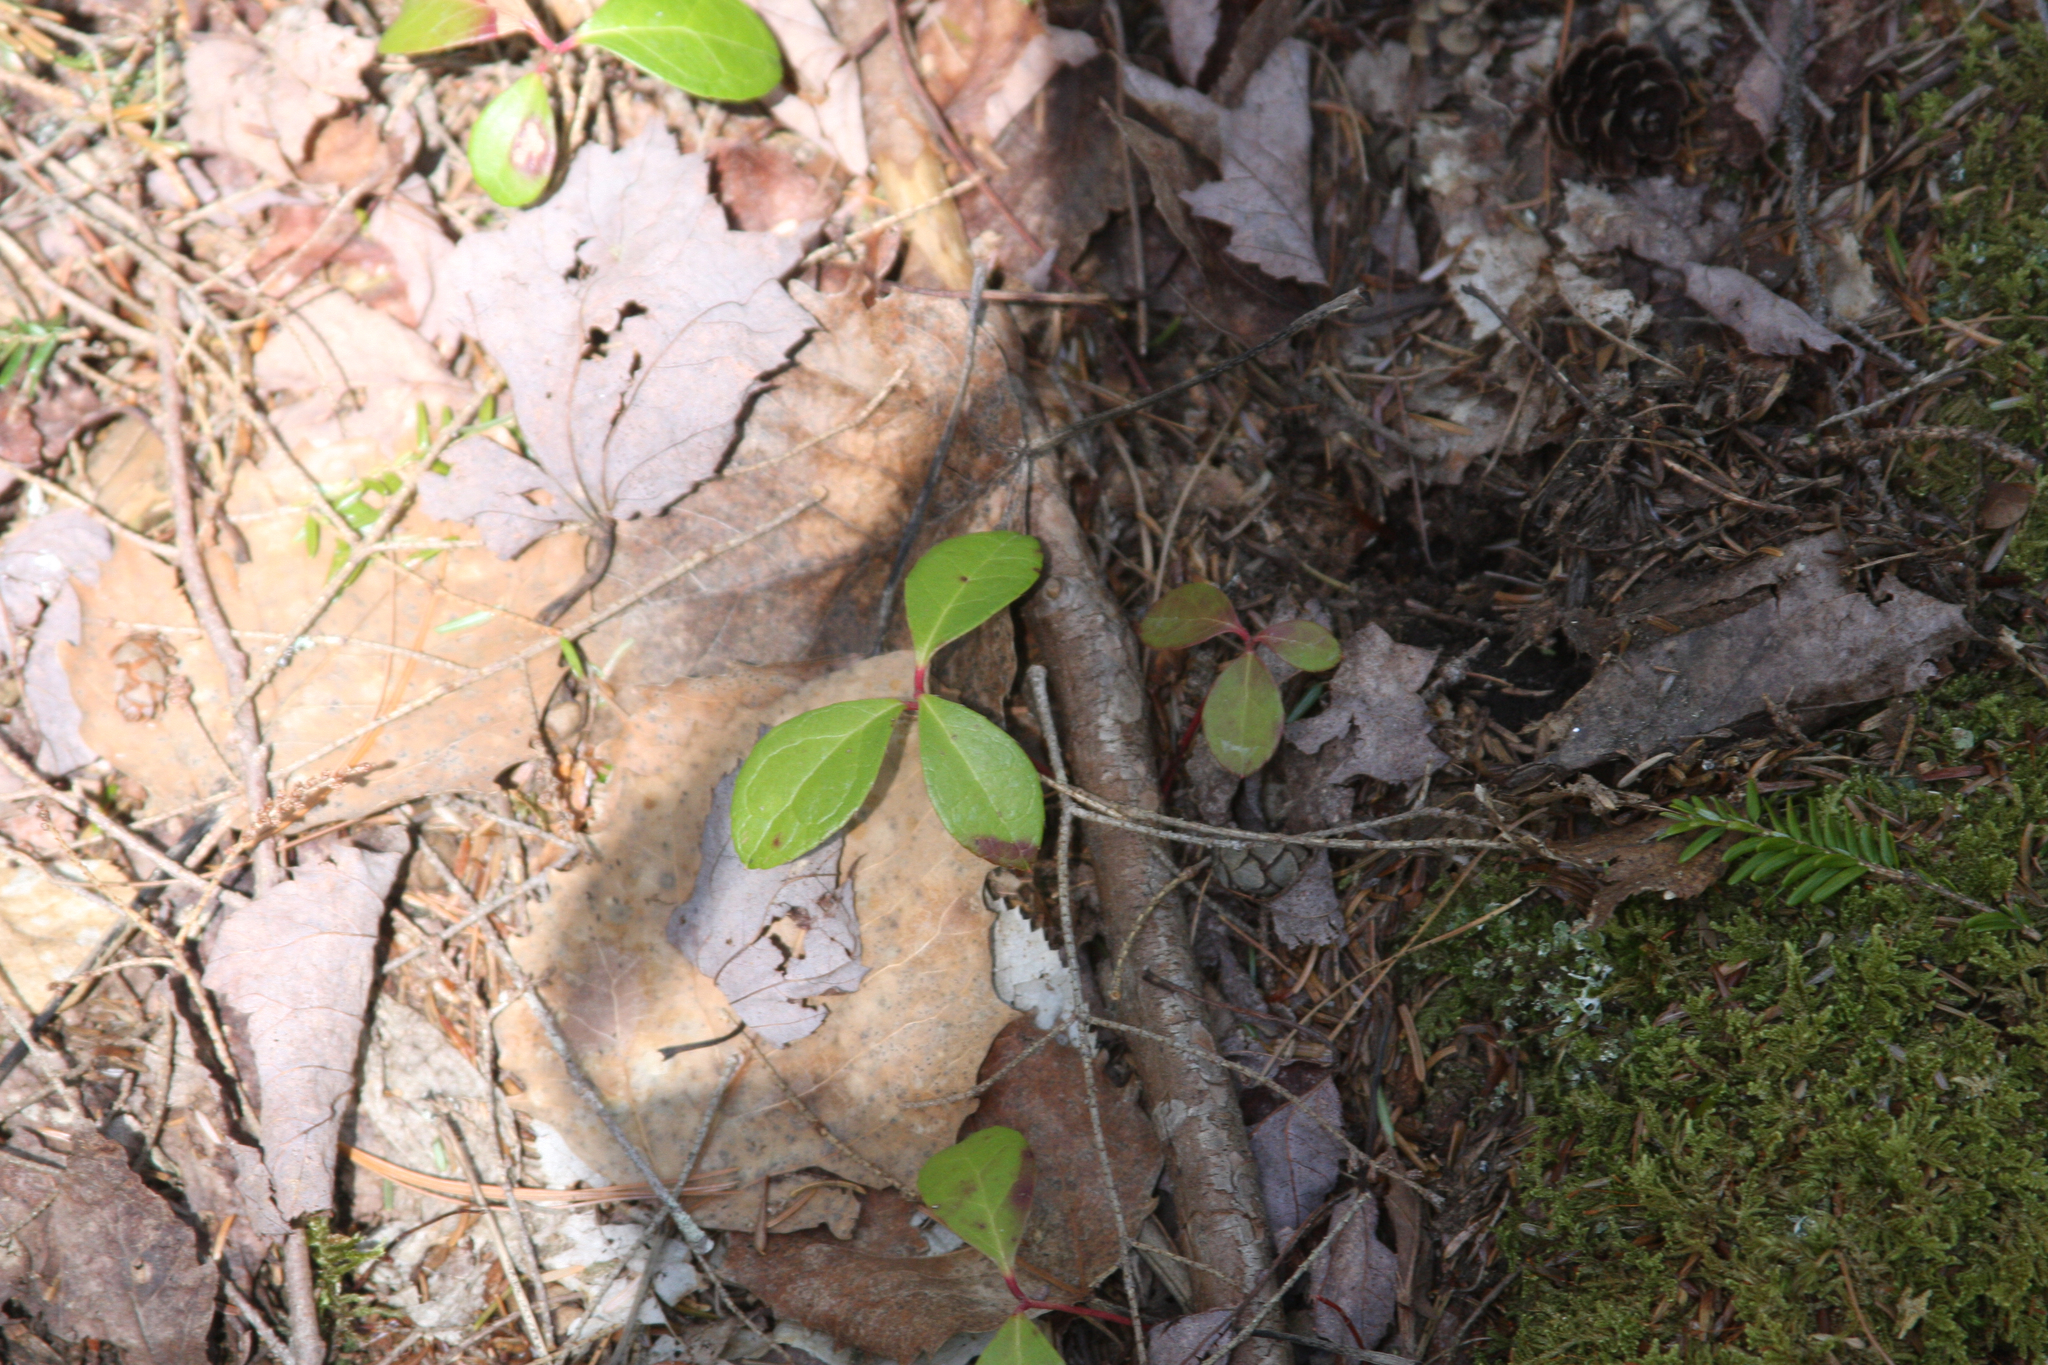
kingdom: Plantae
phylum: Tracheophyta
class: Magnoliopsida
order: Ericales
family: Ericaceae
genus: Gaultheria
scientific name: Gaultheria procumbens
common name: Checkerberry
